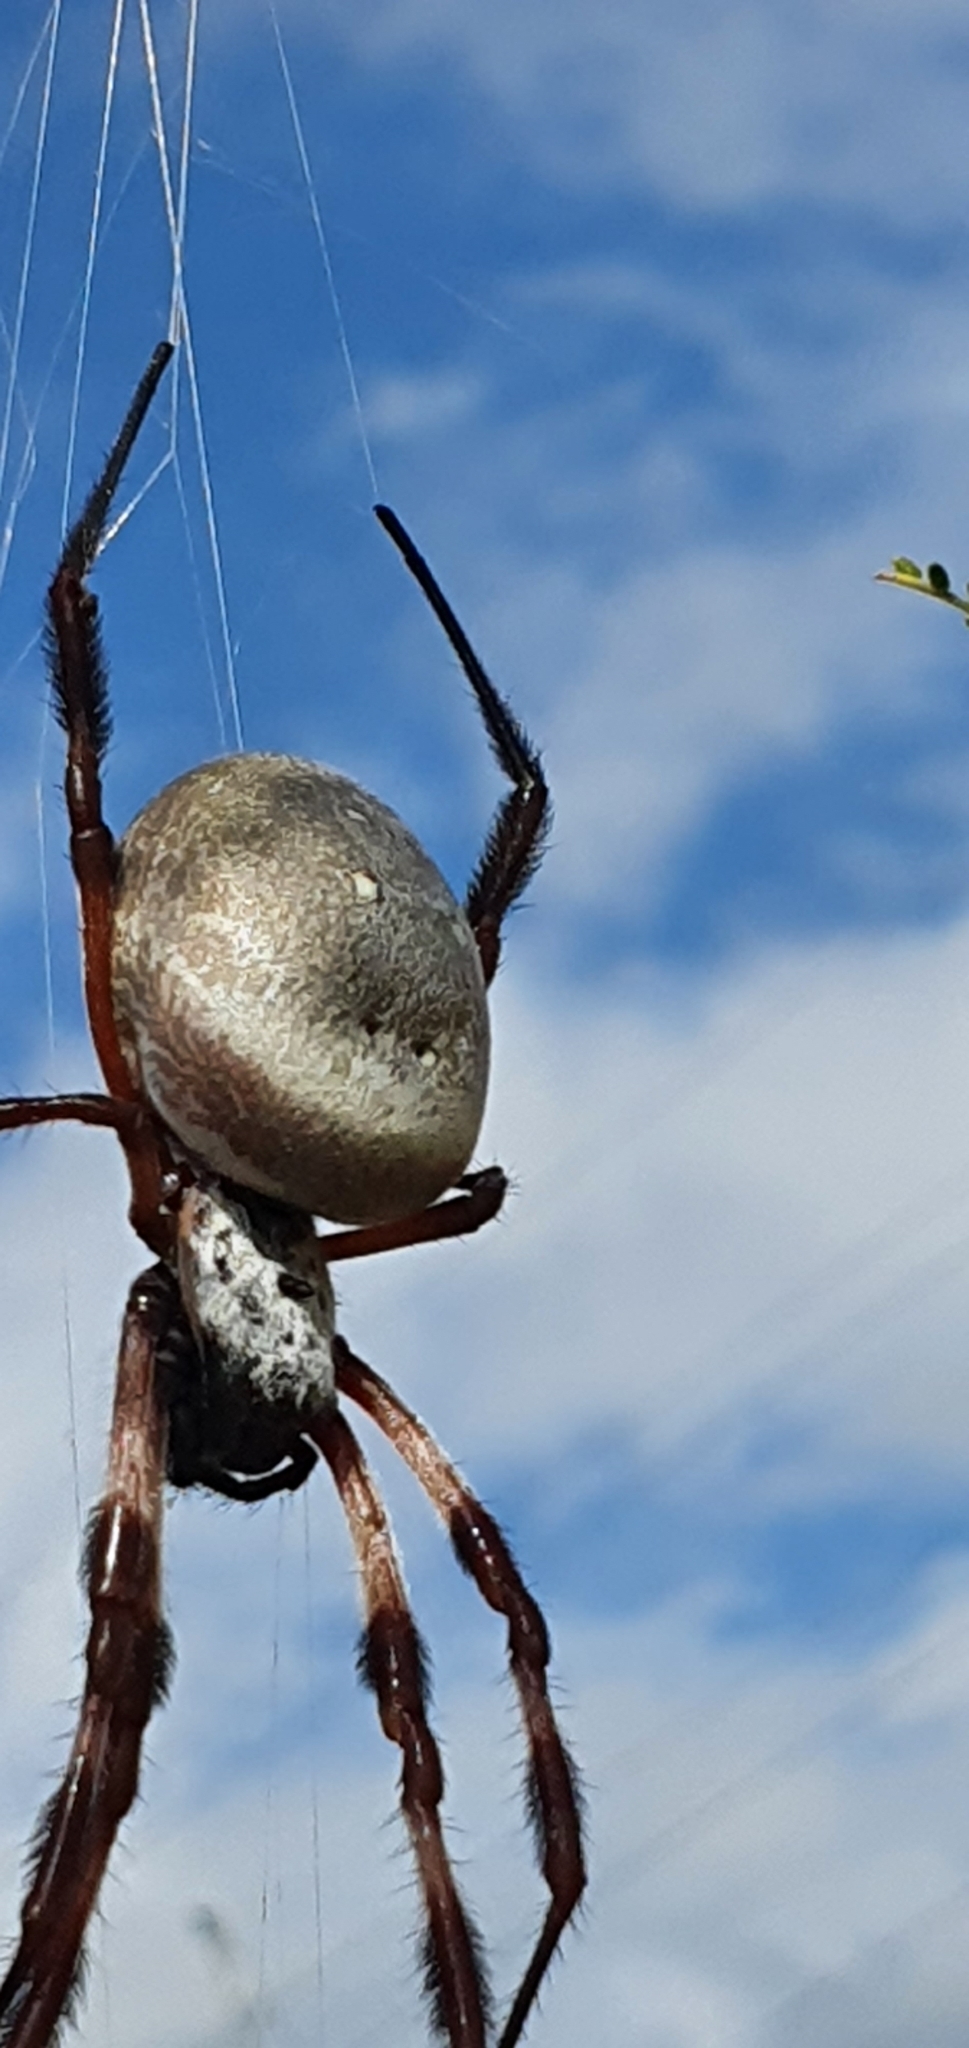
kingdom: Animalia
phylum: Arthropoda
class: Arachnida
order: Araneae
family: Araneidae
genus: Trichonephila
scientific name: Trichonephila edulis
